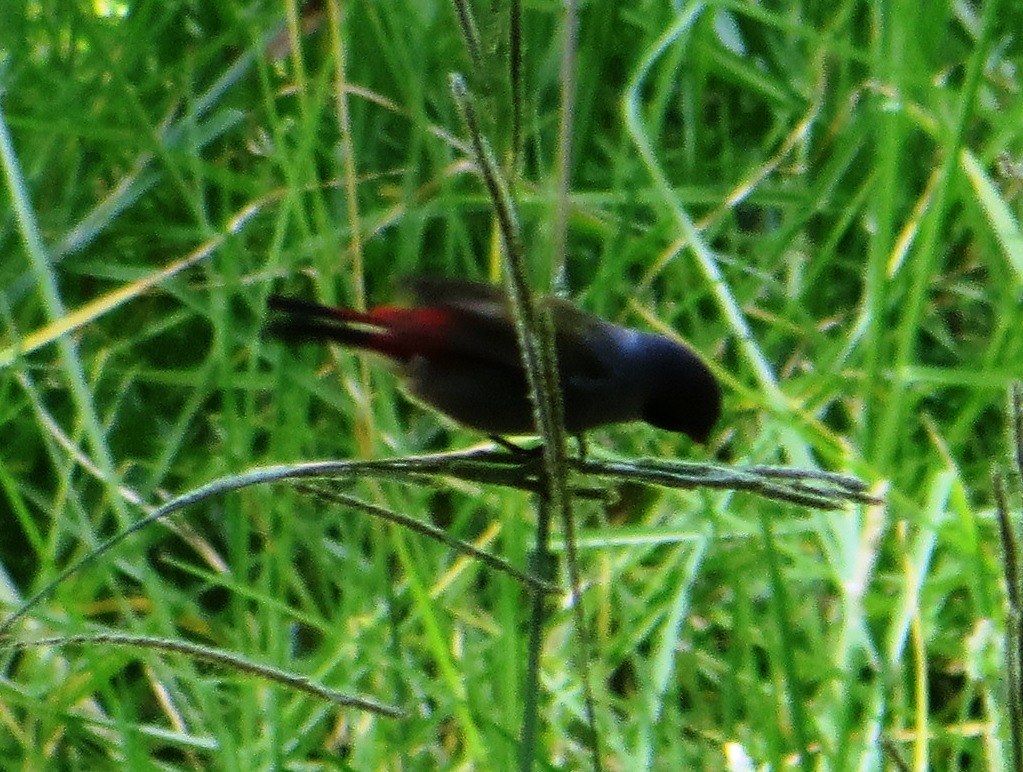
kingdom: Animalia
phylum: Chordata
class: Aves
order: Passeriformes
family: Estrildidae
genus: Coccopygia
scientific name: Coccopygia melanotis
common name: Swee waxbill
